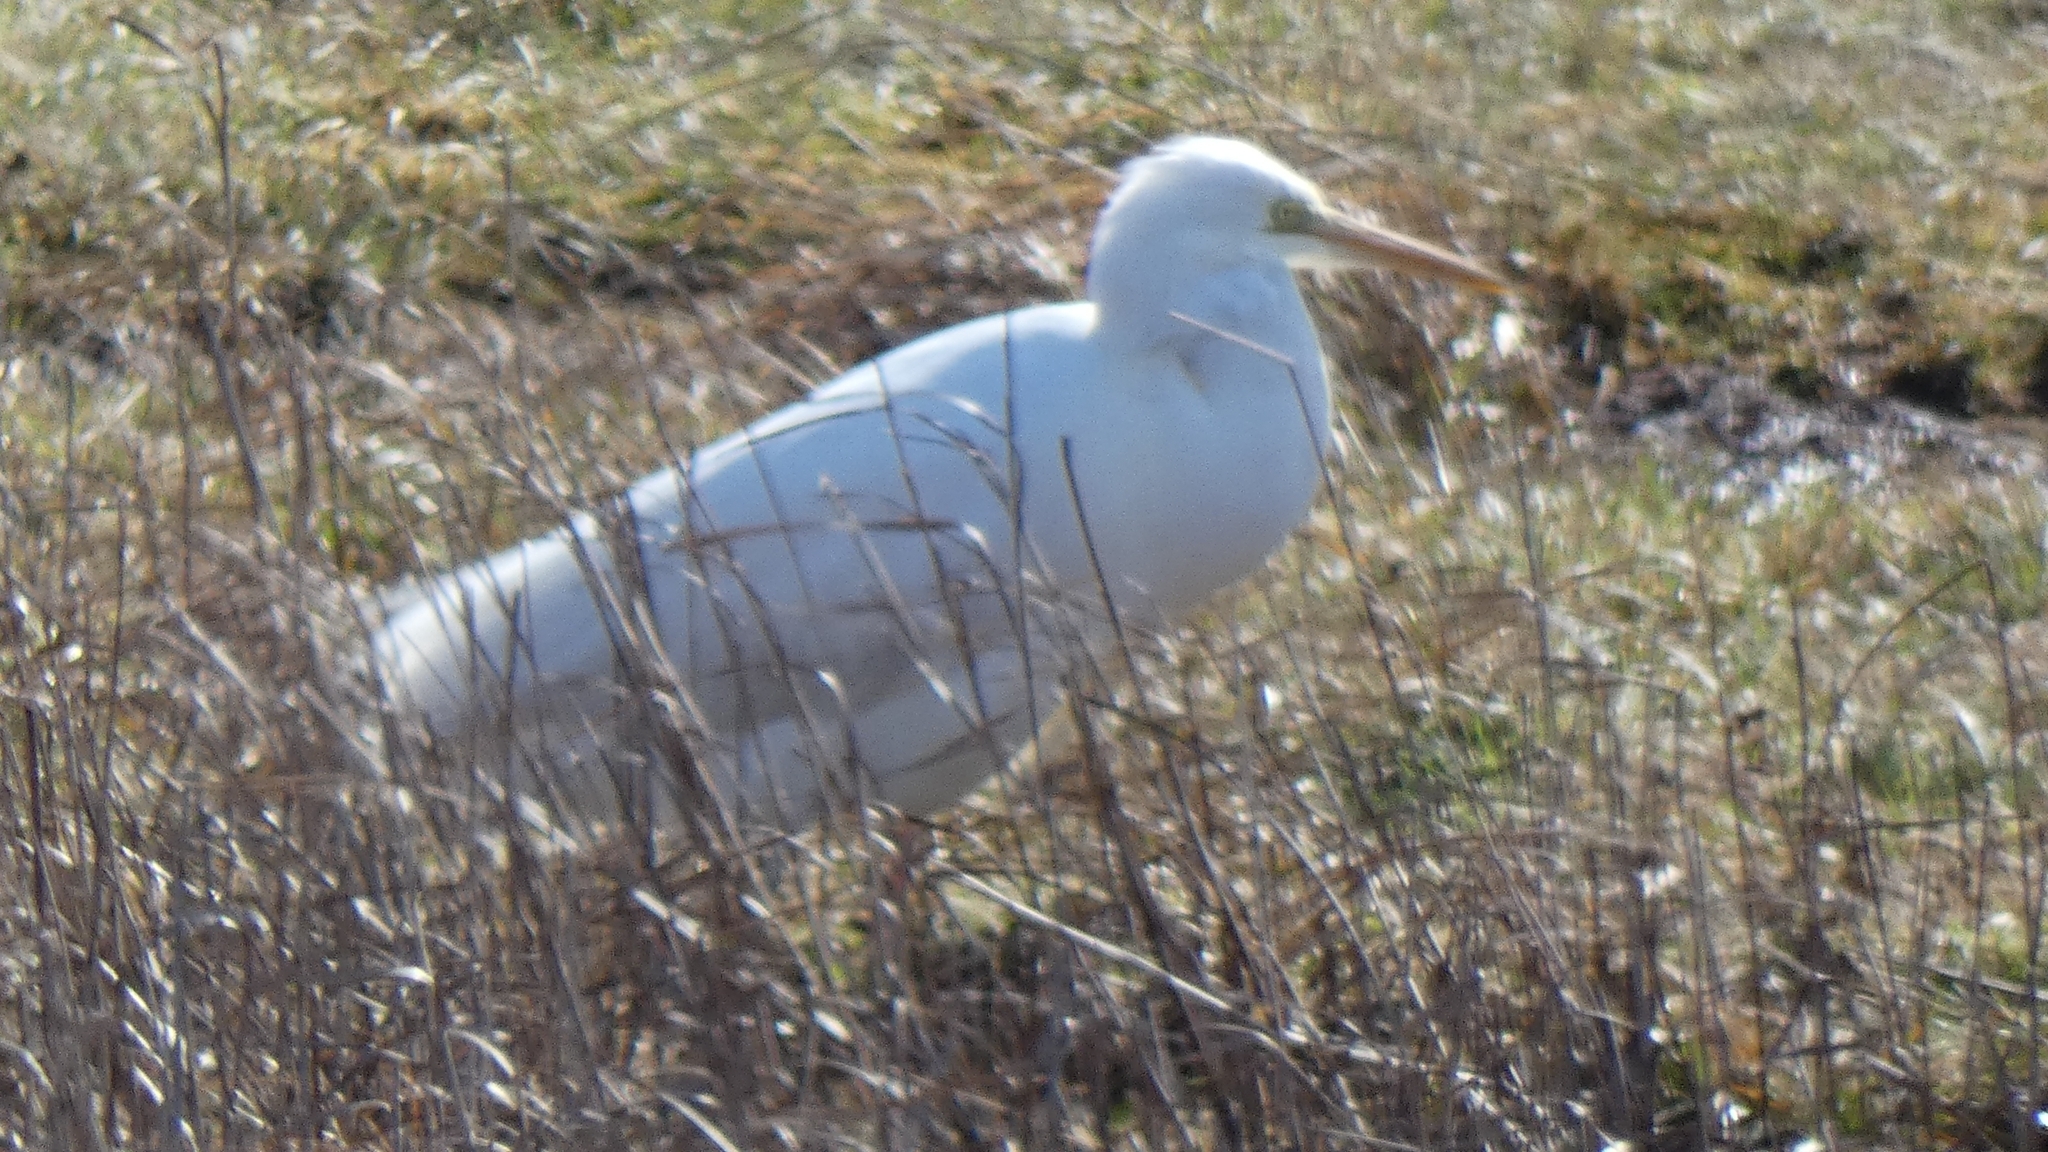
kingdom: Animalia
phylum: Chordata
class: Aves
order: Pelecaniformes
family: Ardeidae
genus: Ardea
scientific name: Ardea alba
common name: Great egret
